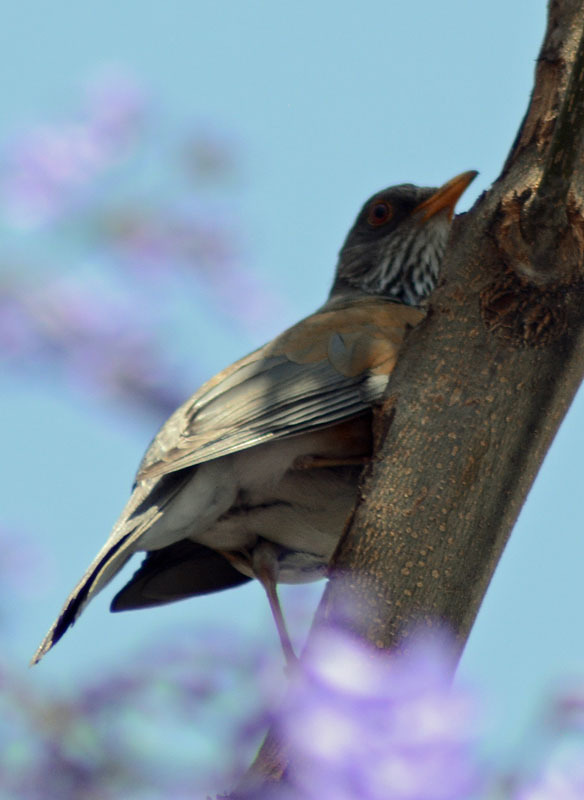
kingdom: Animalia
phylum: Chordata
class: Aves
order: Passeriformes
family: Turdidae
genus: Turdus
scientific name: Turdus rufopalliatus
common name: Rufous-backed robin
